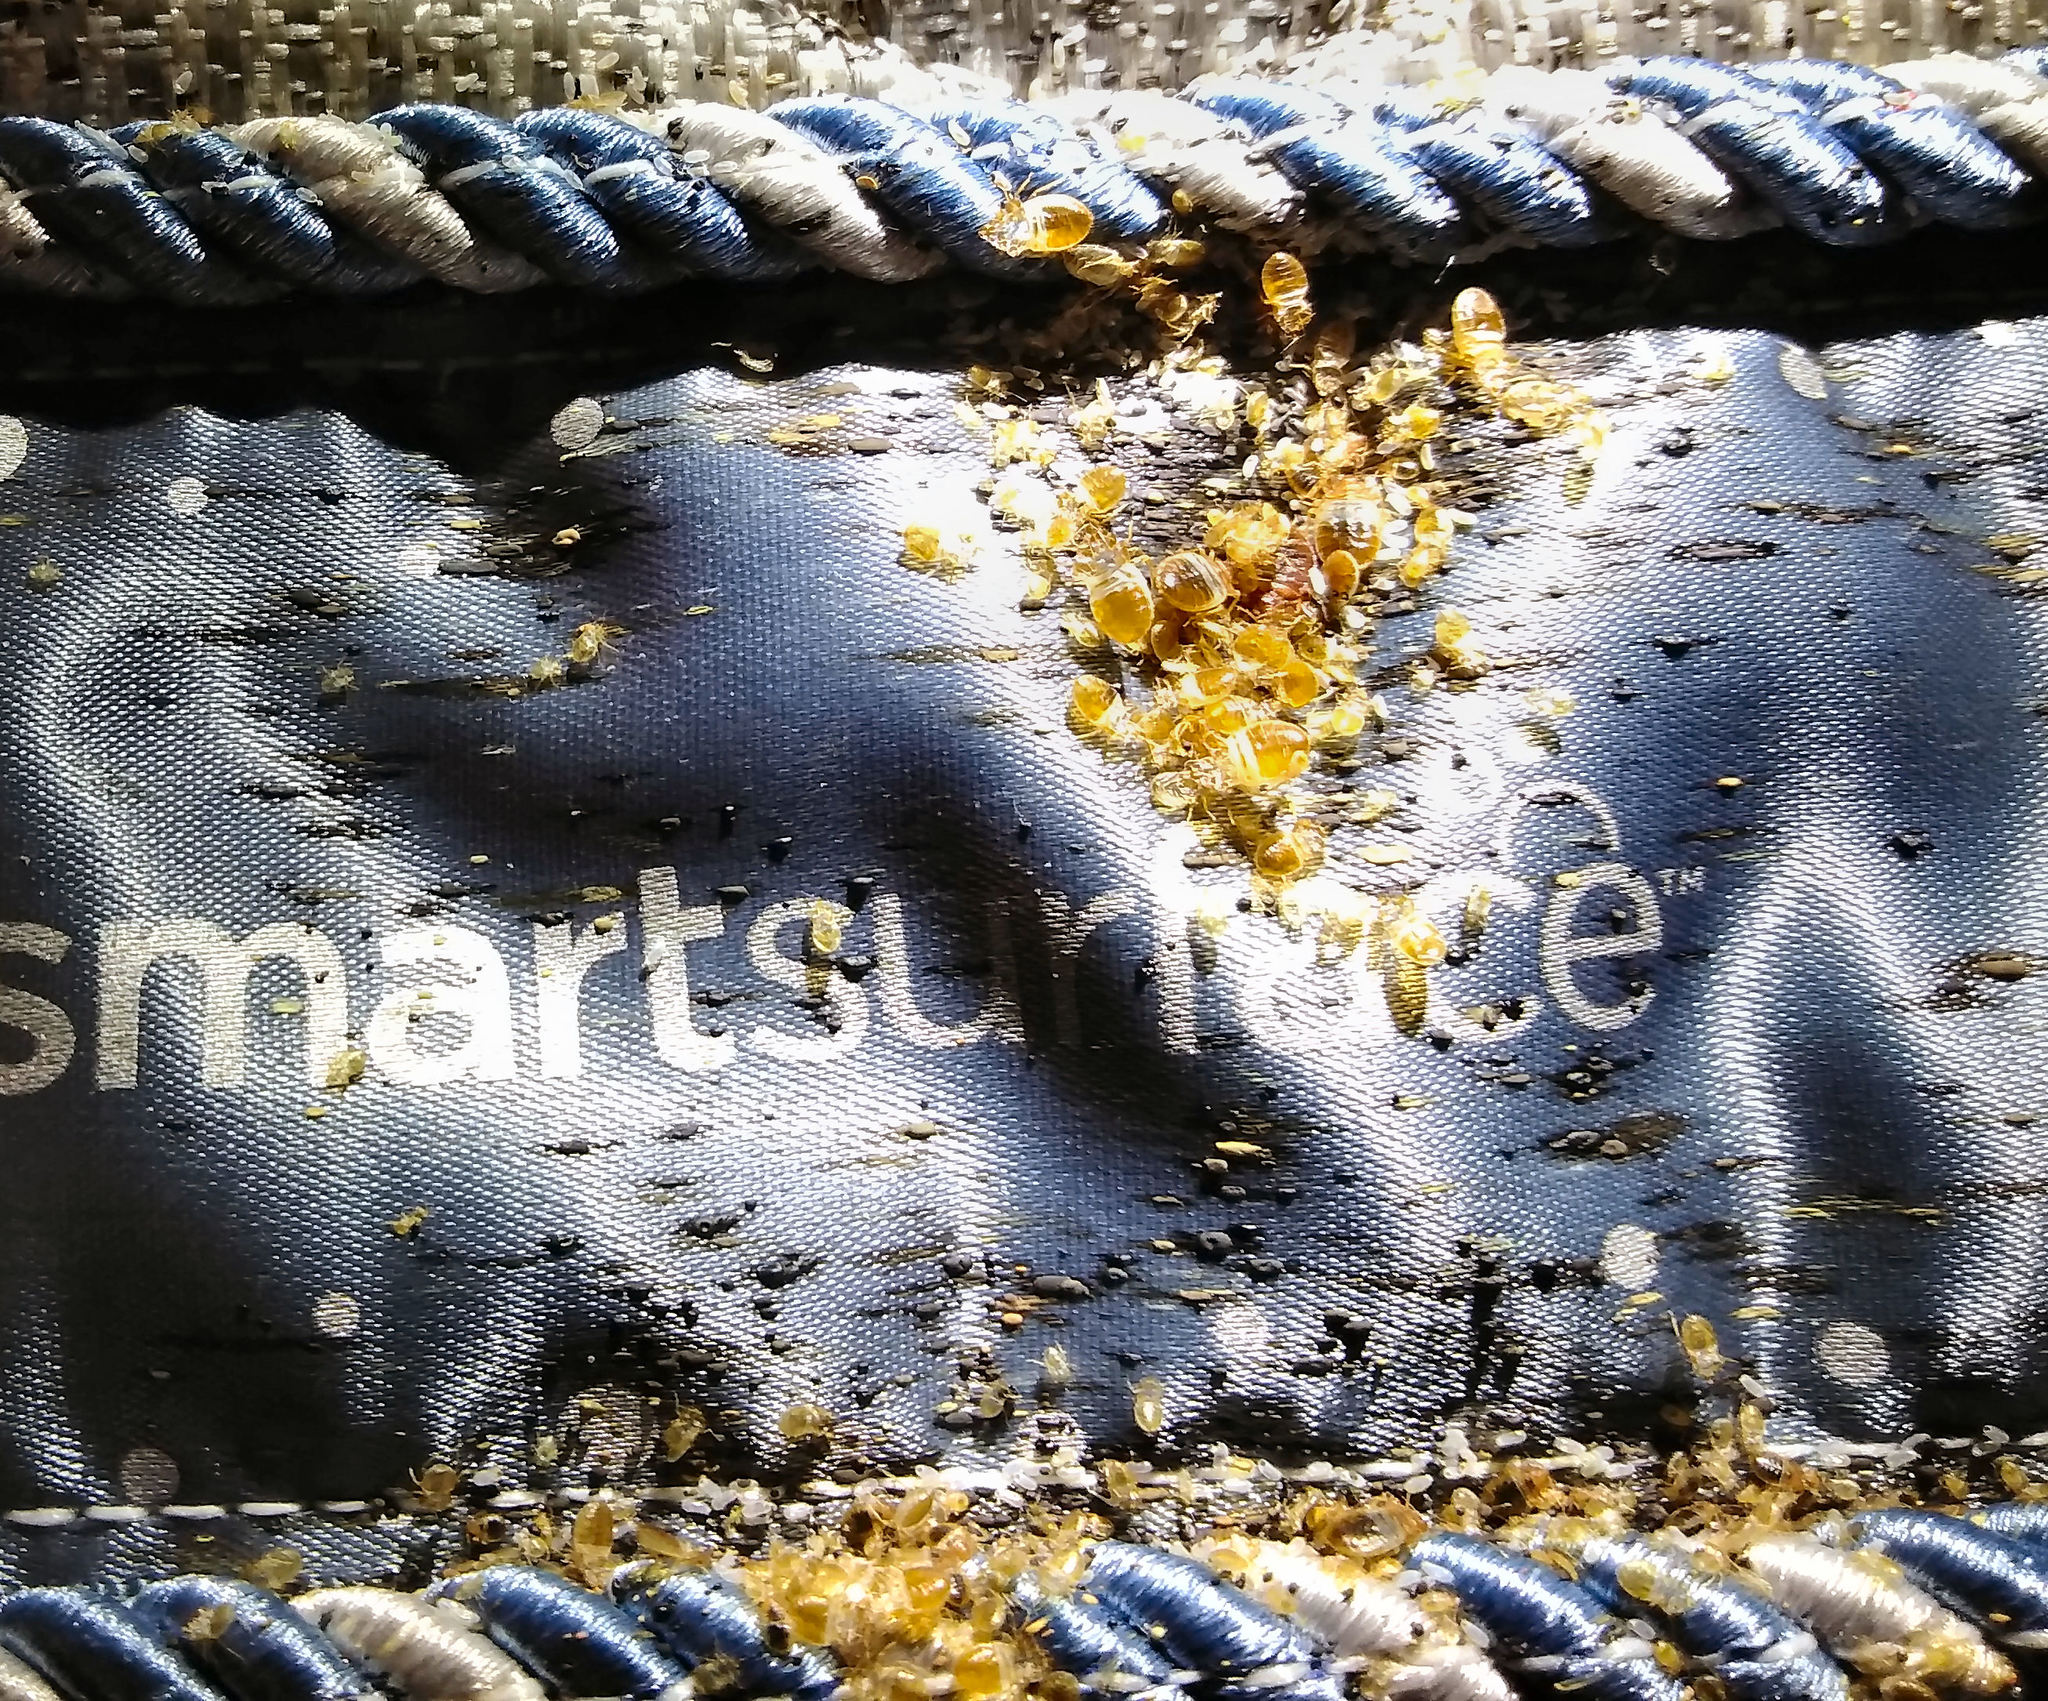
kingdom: Animalia
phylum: Arthropoda
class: Insecta
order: Hemiptera
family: Cimicidae
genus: Cimex
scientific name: Cimex lectularius
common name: Bed bug
